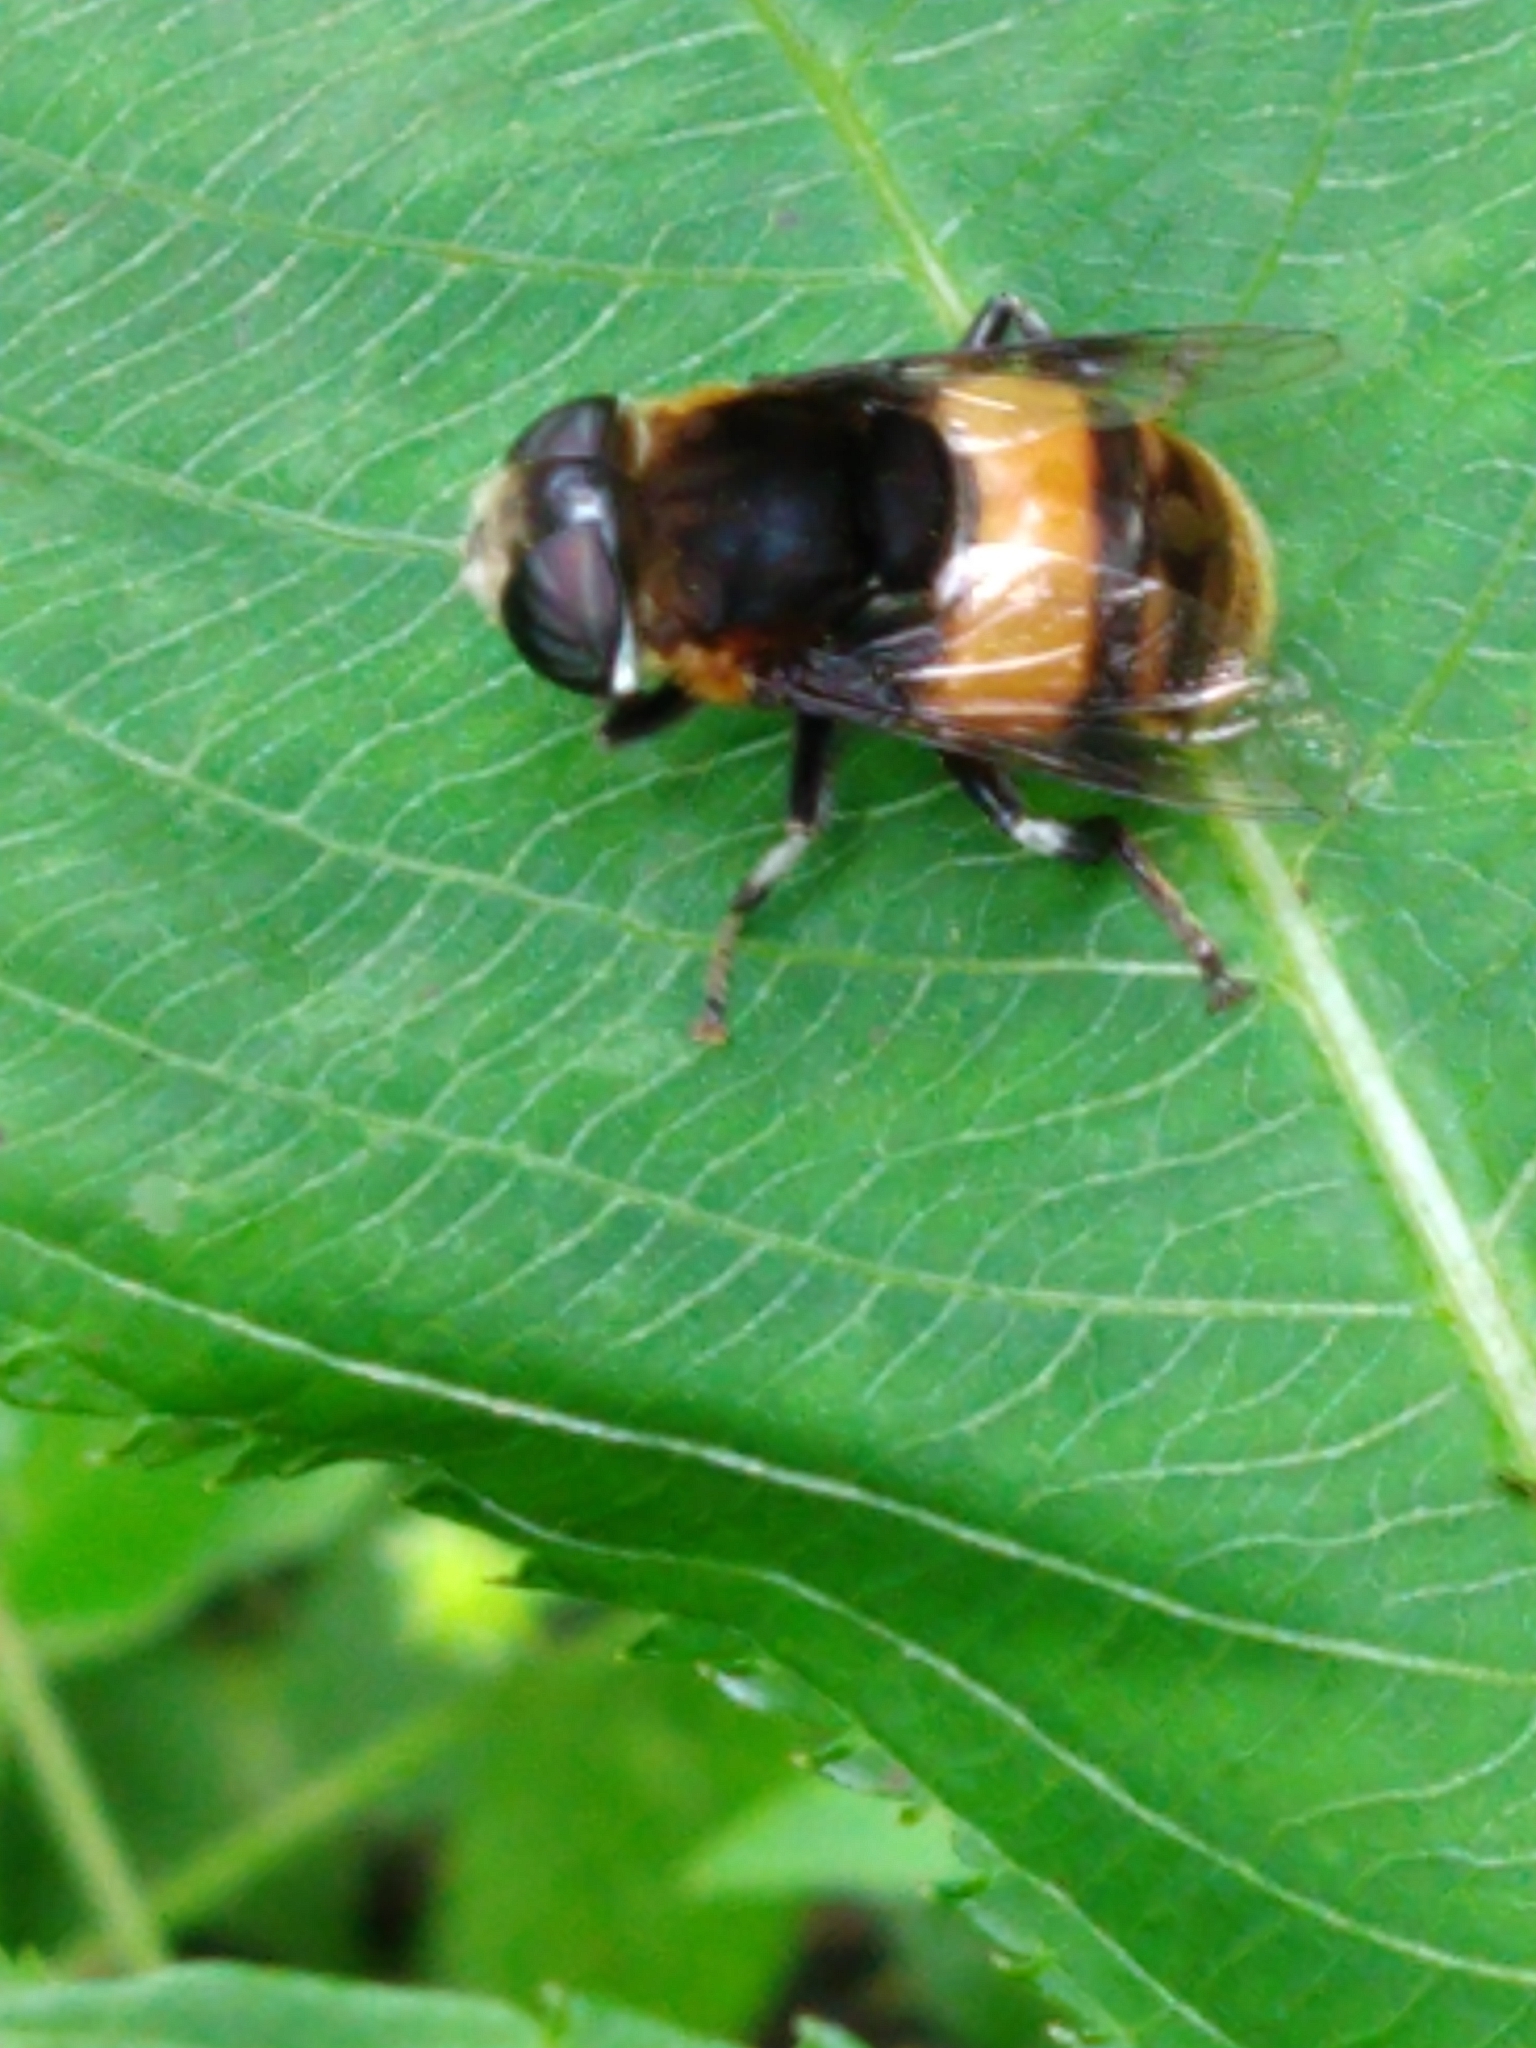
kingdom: Animalia
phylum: Arthropoda
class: Insecta
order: Diptera
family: Syrphidae
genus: Phytomia
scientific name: Phytomia zonata
